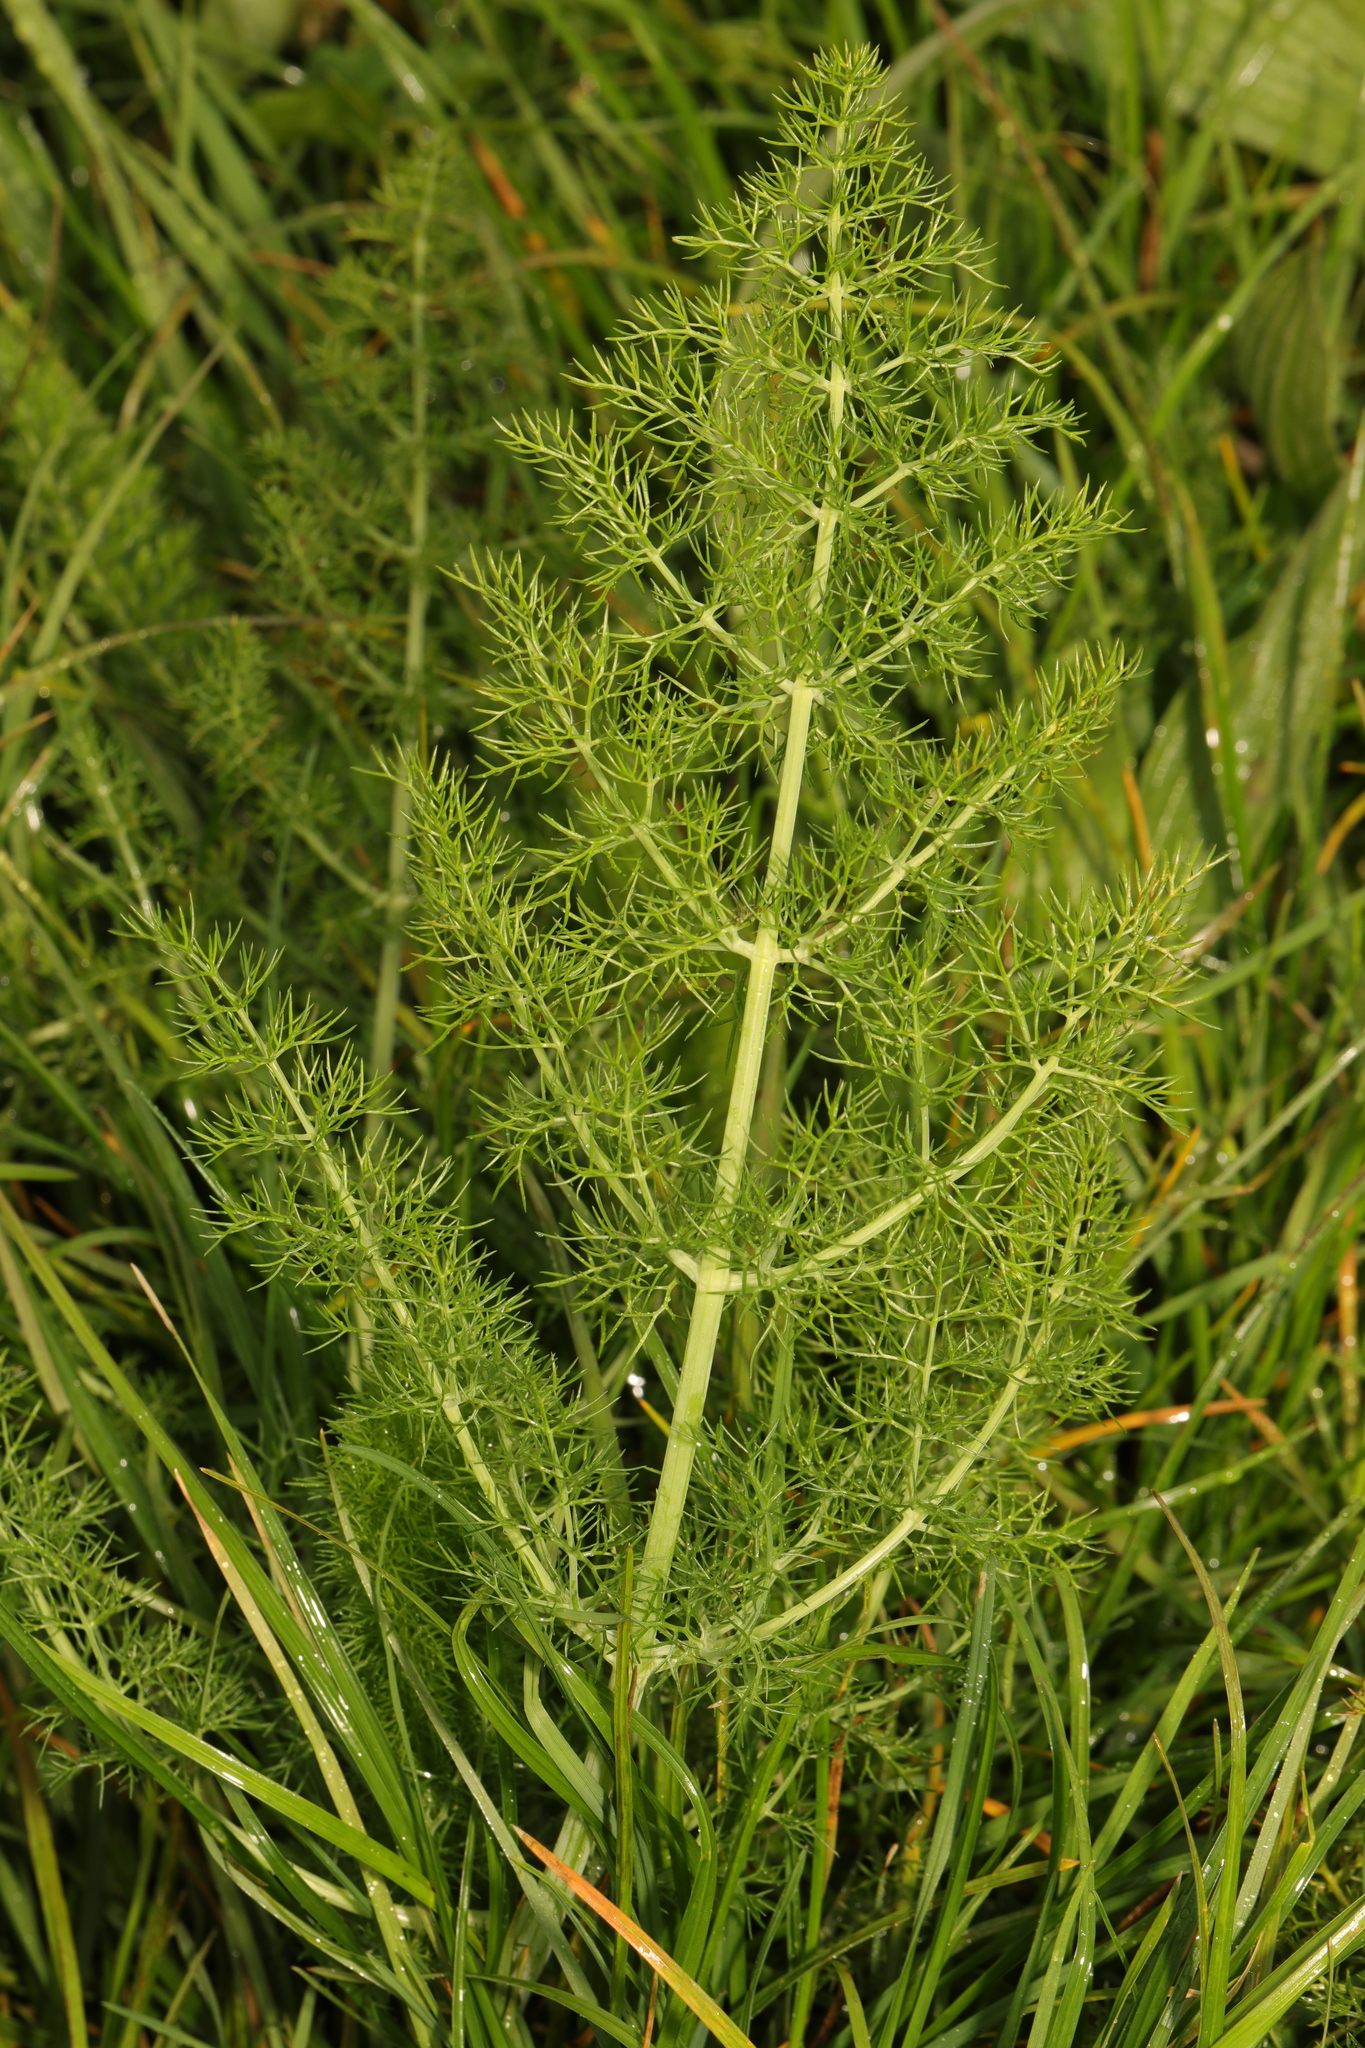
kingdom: Plantae
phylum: Tracheophyta
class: Magnoliopsida
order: Apiales
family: Apiaceae
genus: Foeniculum
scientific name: Foeniculum vulgare
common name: Fennel
